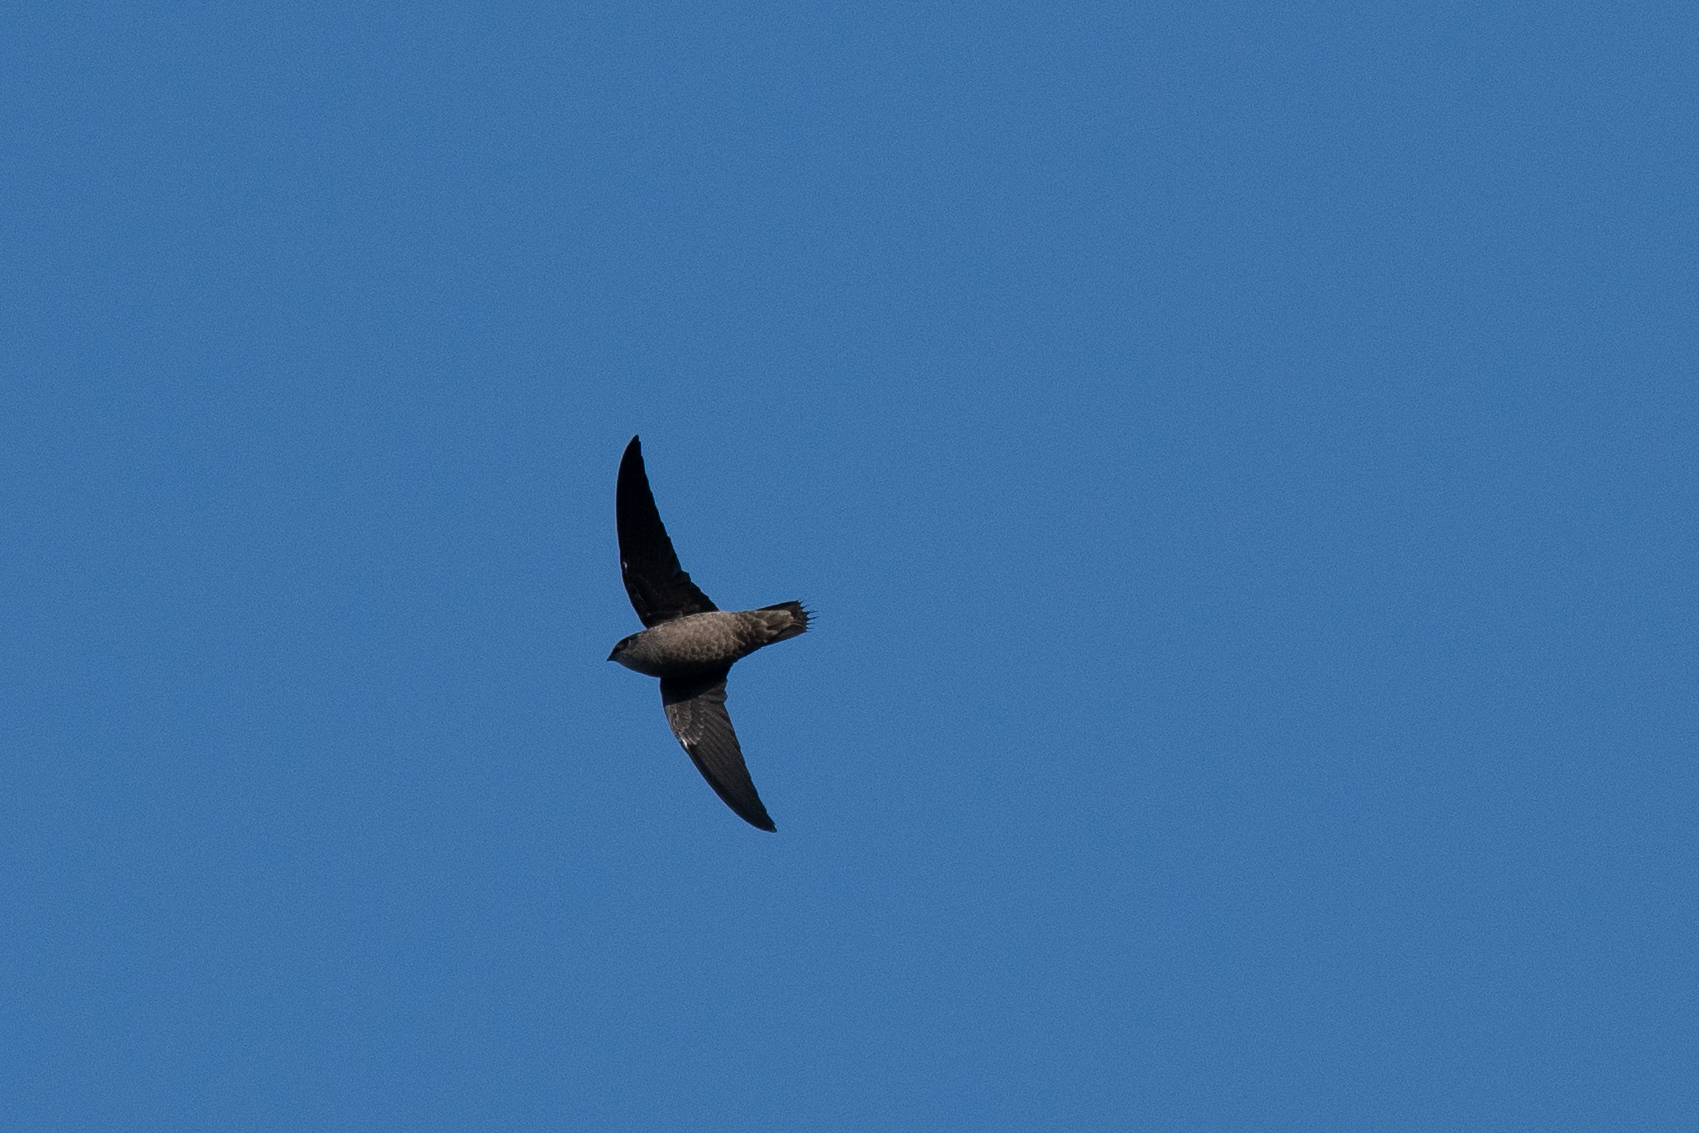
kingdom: Animalia
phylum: Chordata
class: Aves
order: Apodiformes
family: Apodidae
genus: Chaetura
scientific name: Chaetura vauxi
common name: Vaux's swift
